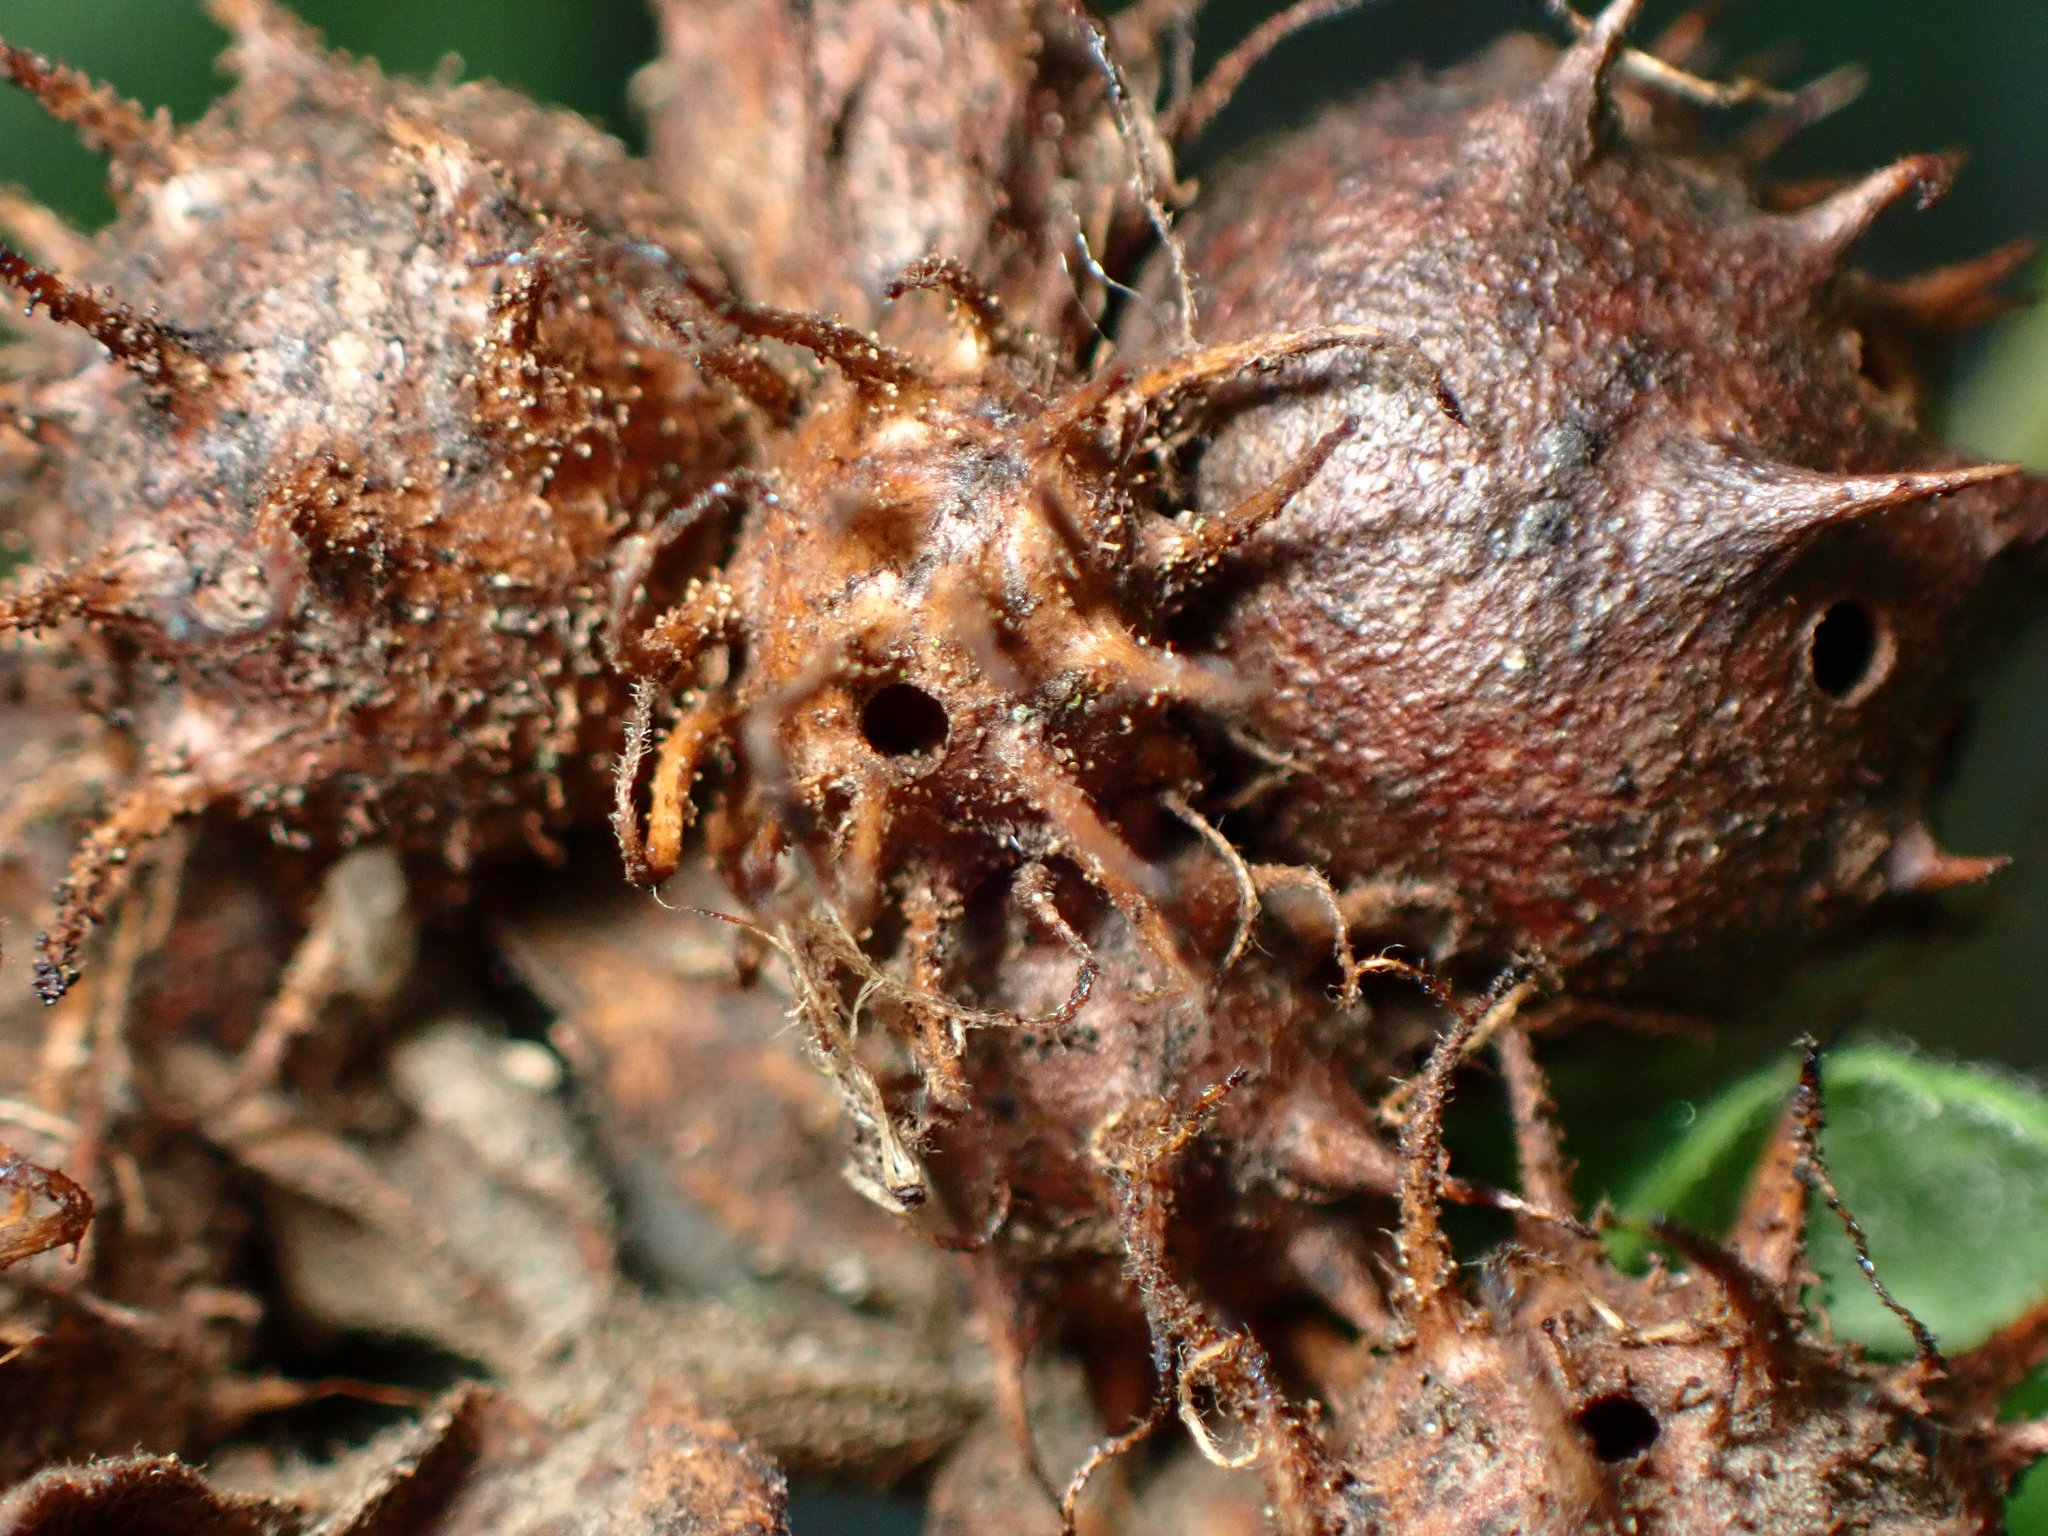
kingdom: Animalia
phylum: Arthropoda
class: Insecta
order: Hymenoptera
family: Cynipidae
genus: Diplolepis
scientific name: Diplolepis
